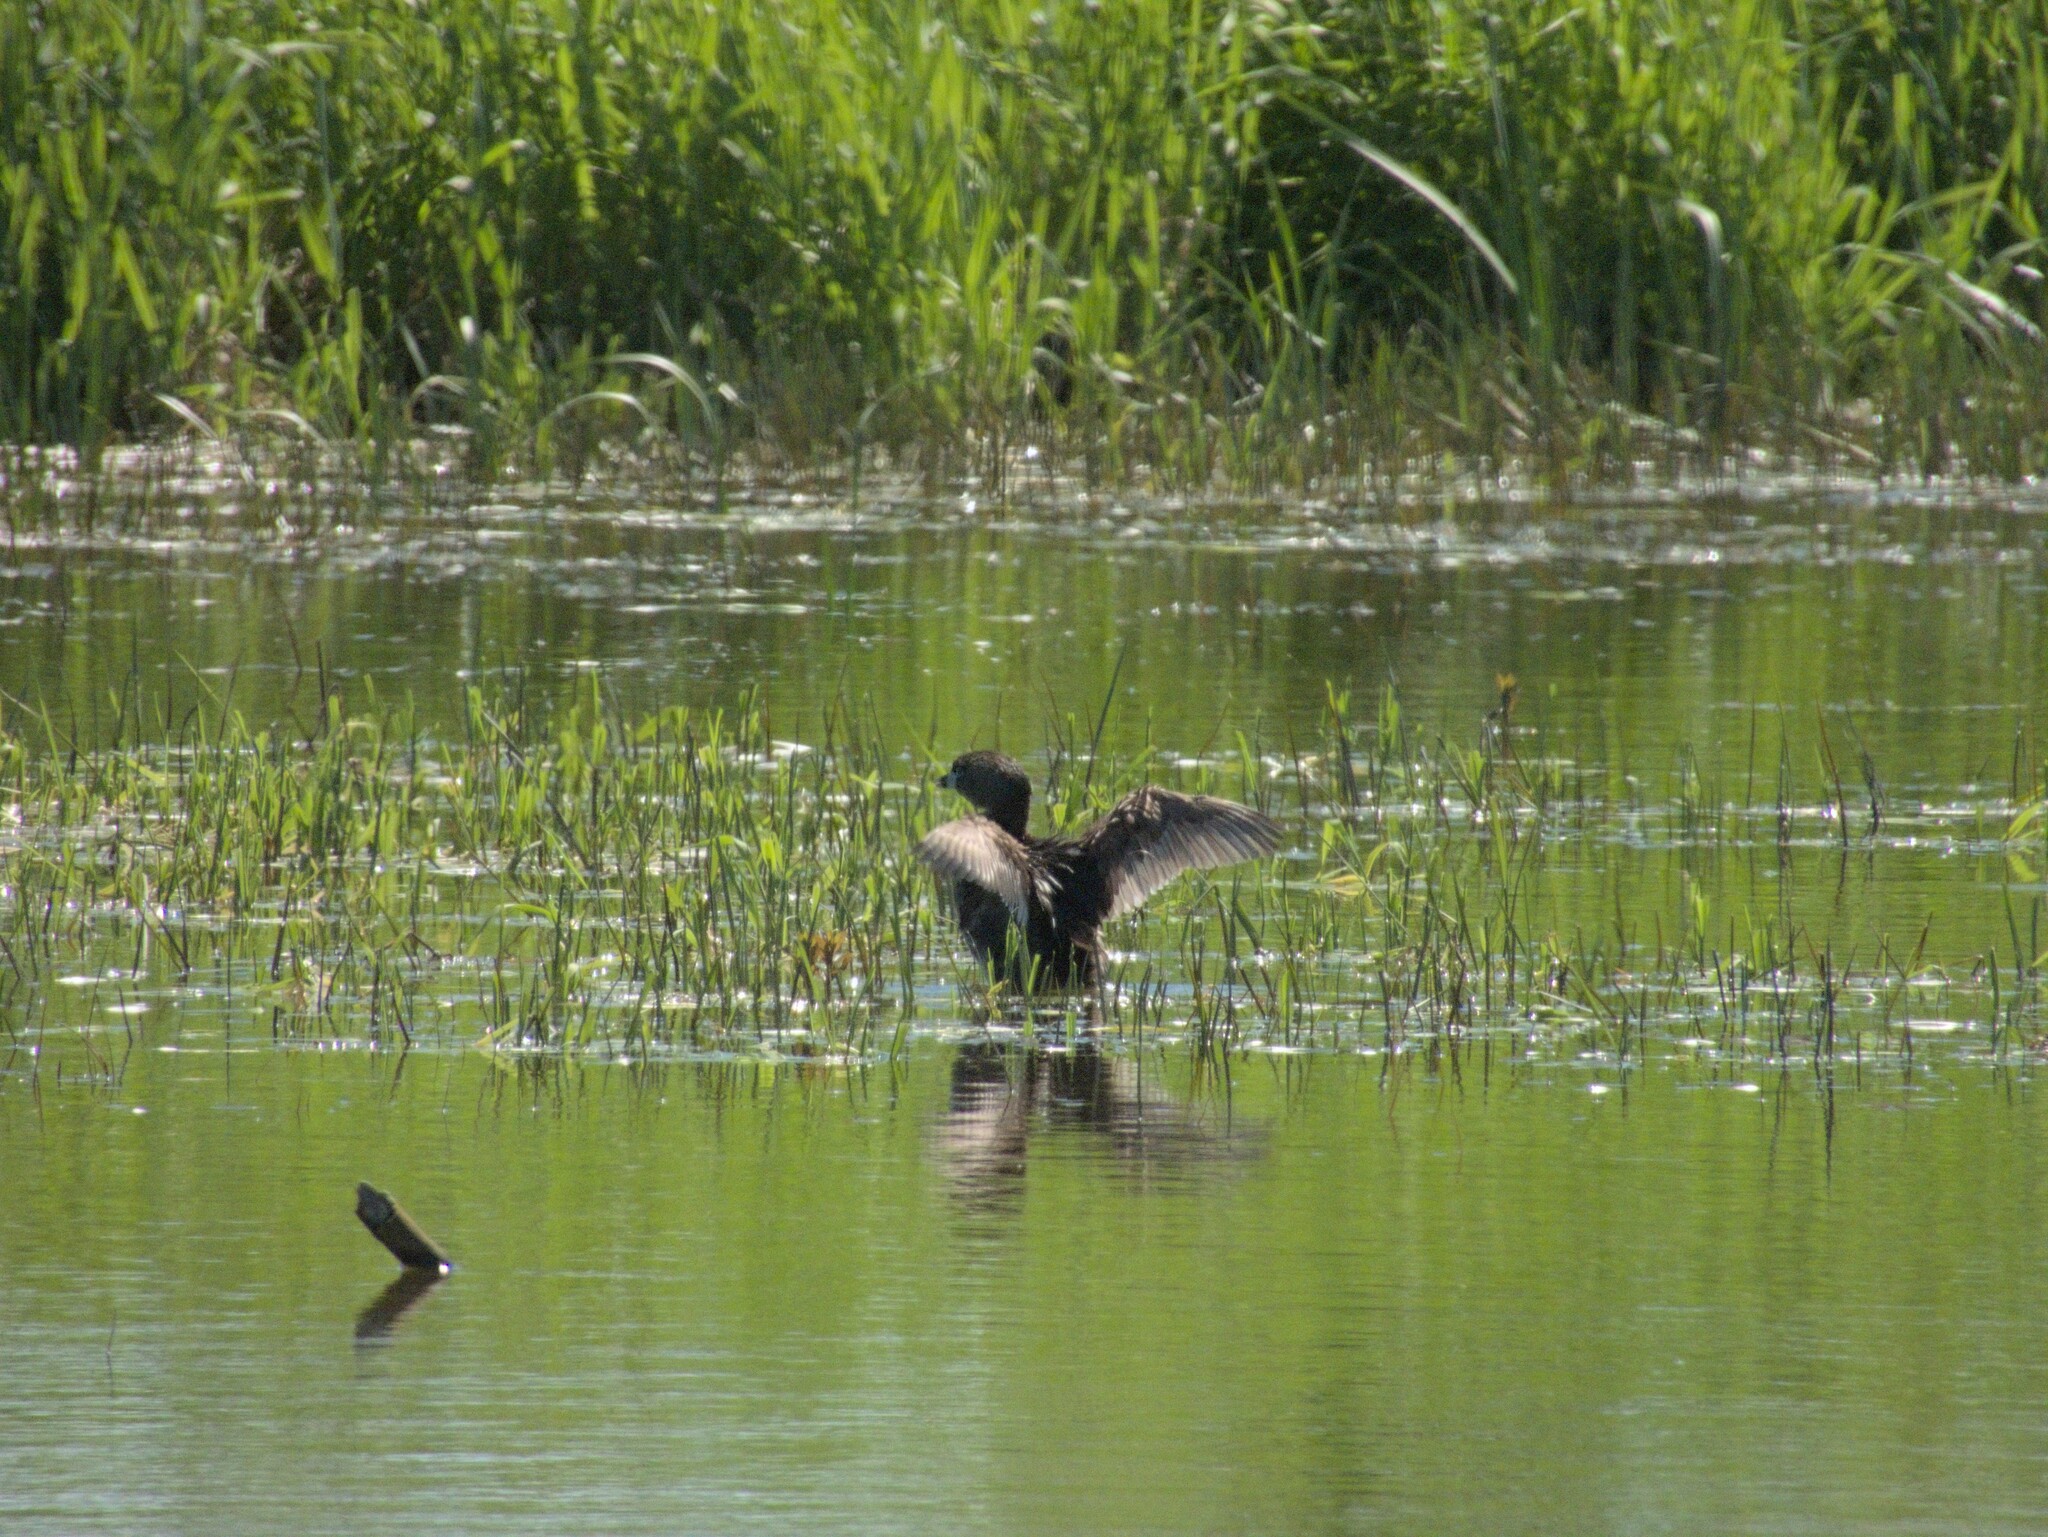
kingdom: Animalia
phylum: Chordata
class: Aves
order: Podicipediformes
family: Podicipedidae
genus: Podilymbus
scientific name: Podilymbus podiceps
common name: Pied-billed grebe
